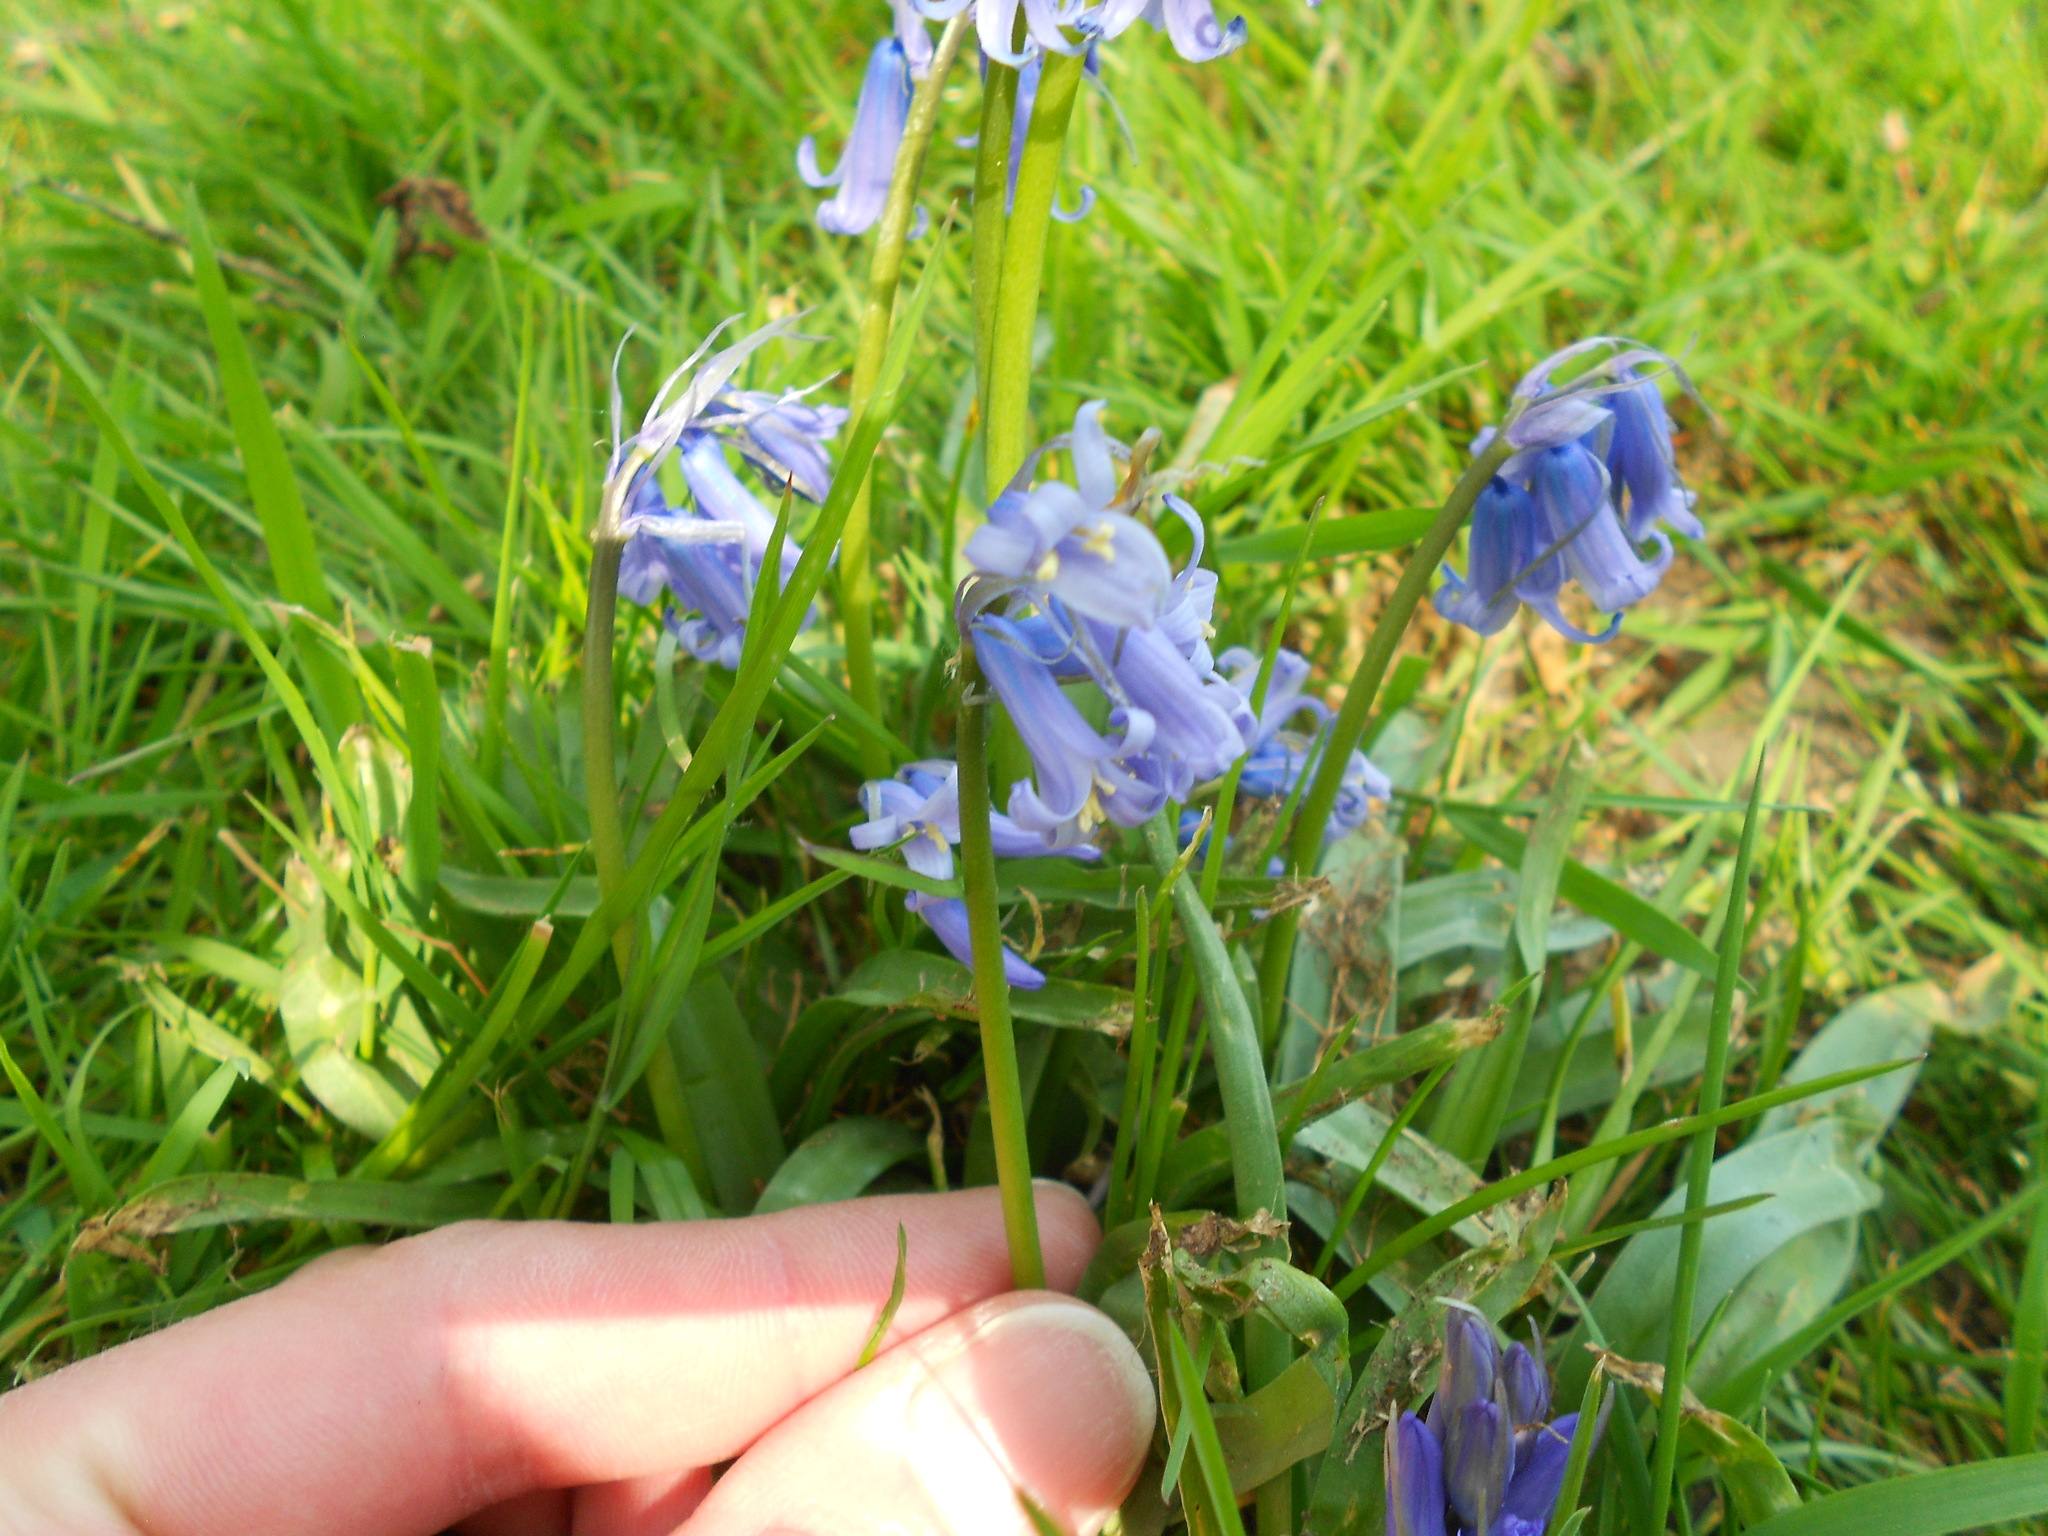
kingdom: Plantae
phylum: Tracheophyta
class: Liliopsida
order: Asparagales
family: Asparagaceae
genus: Hyacinthoides
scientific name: Hyacinthoides massartiana
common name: Hyacinthoides
